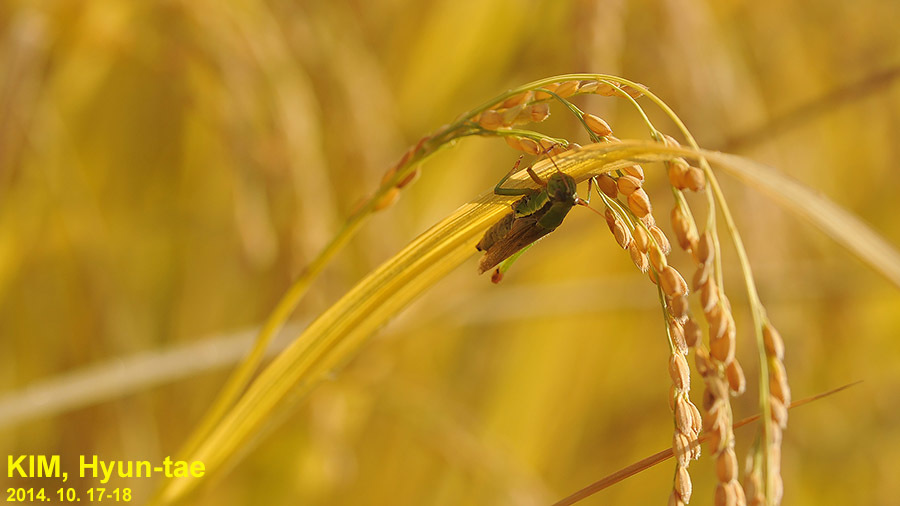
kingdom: Animalia
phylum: Arthropoda
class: Insecta
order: Orthoptera
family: Acrididae
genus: Oxya
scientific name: Oxya chinensis
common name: Small rice grasshopper
